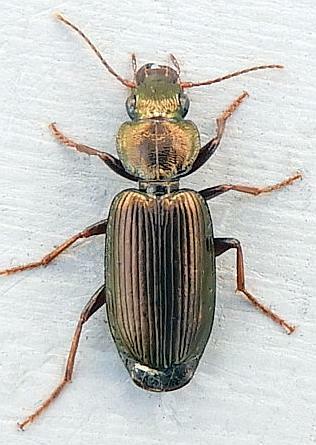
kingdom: Animalia
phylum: Arthropoda
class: Insecta
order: Coleoptera
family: Carabidae
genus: Apenes
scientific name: Apenes lucidula
